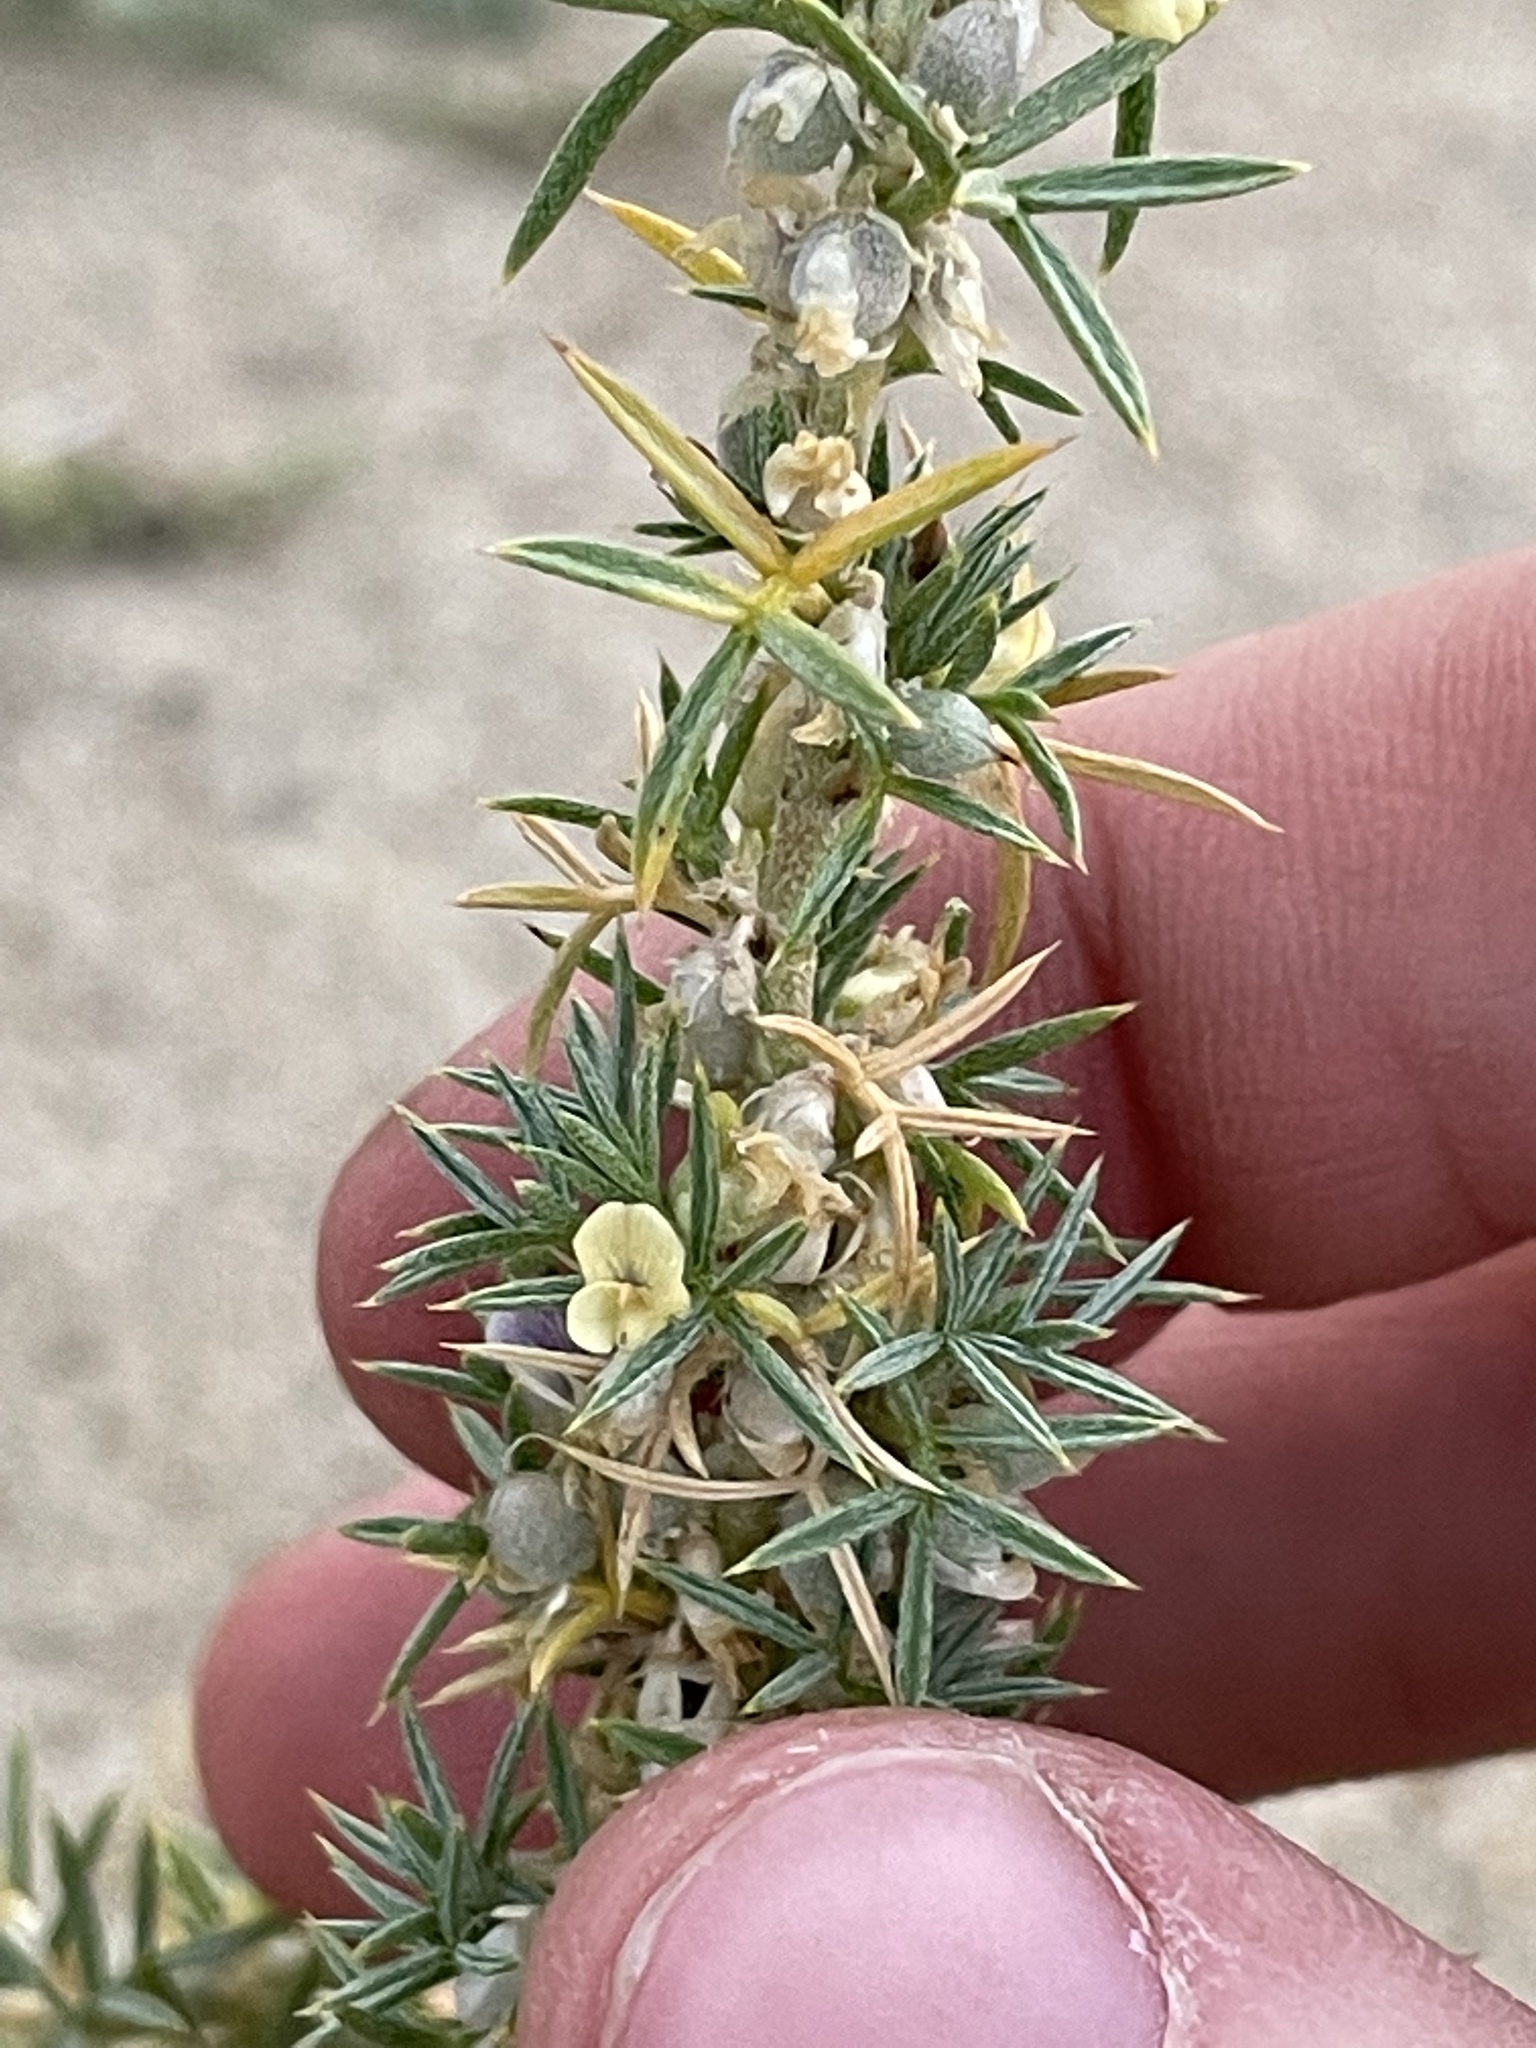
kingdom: Plantae
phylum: Tracheophyta
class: Magnoliopsida
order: Fabales
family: Fabaceae
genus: Astragalus
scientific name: Astragalus kentrophyta
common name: Prickly milk-vetch
